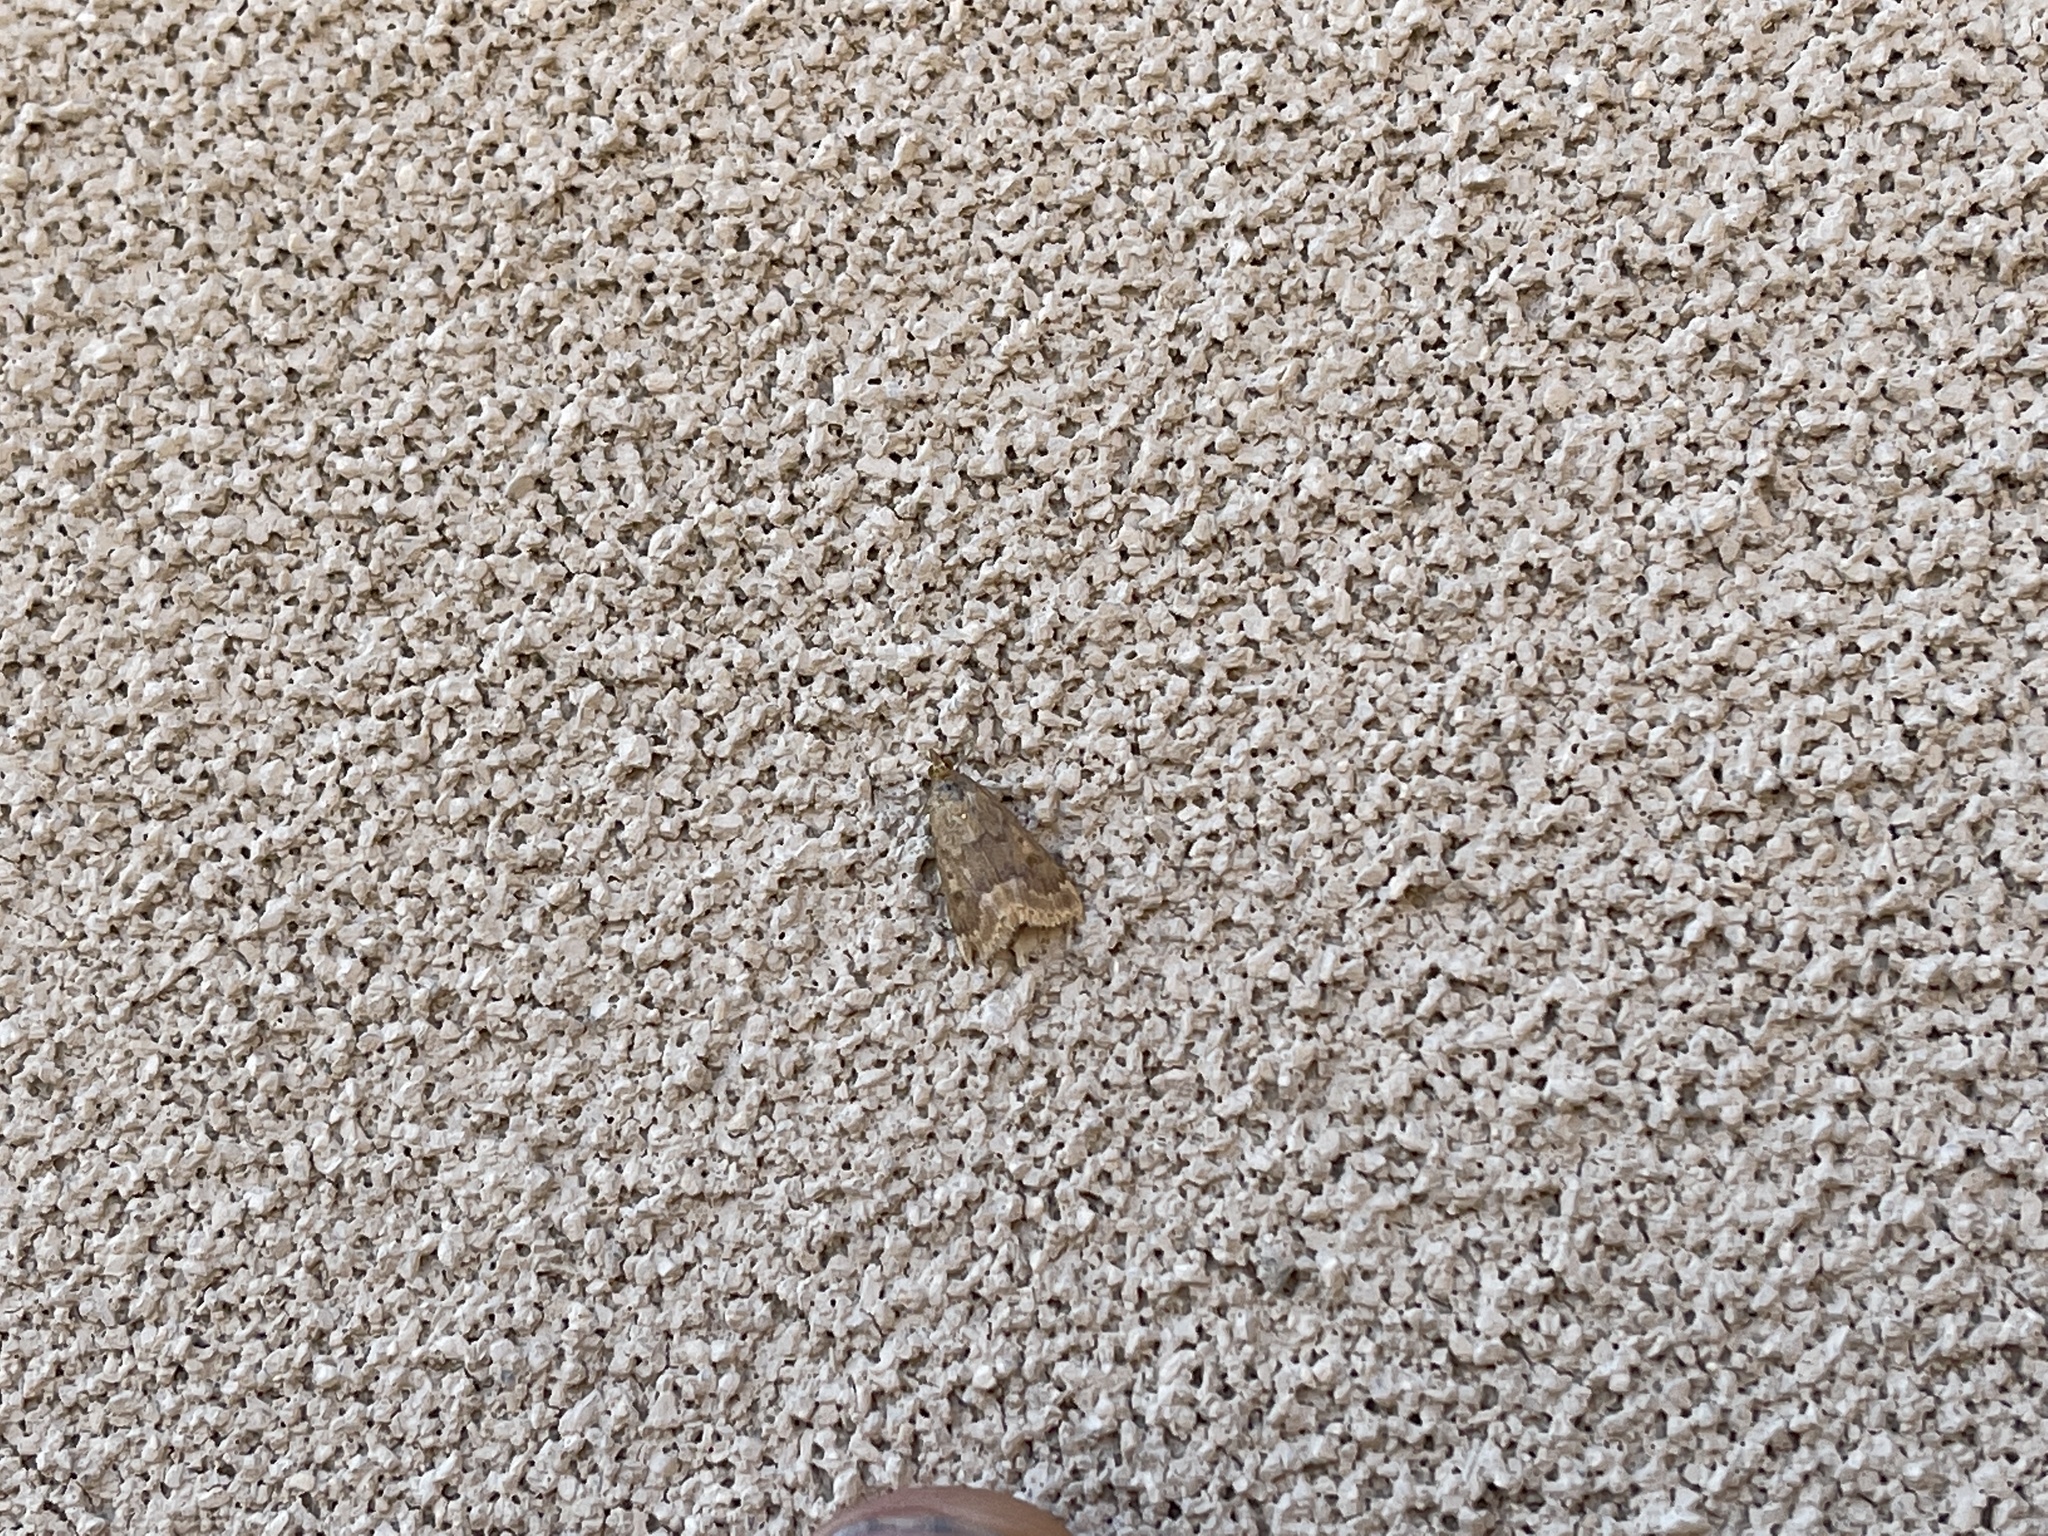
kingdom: Animalia
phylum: Arthropoda
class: Insecta
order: Lepidoptera
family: Crambidae
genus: Achyra
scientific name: Achyra rantalis
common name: Garden webworm
